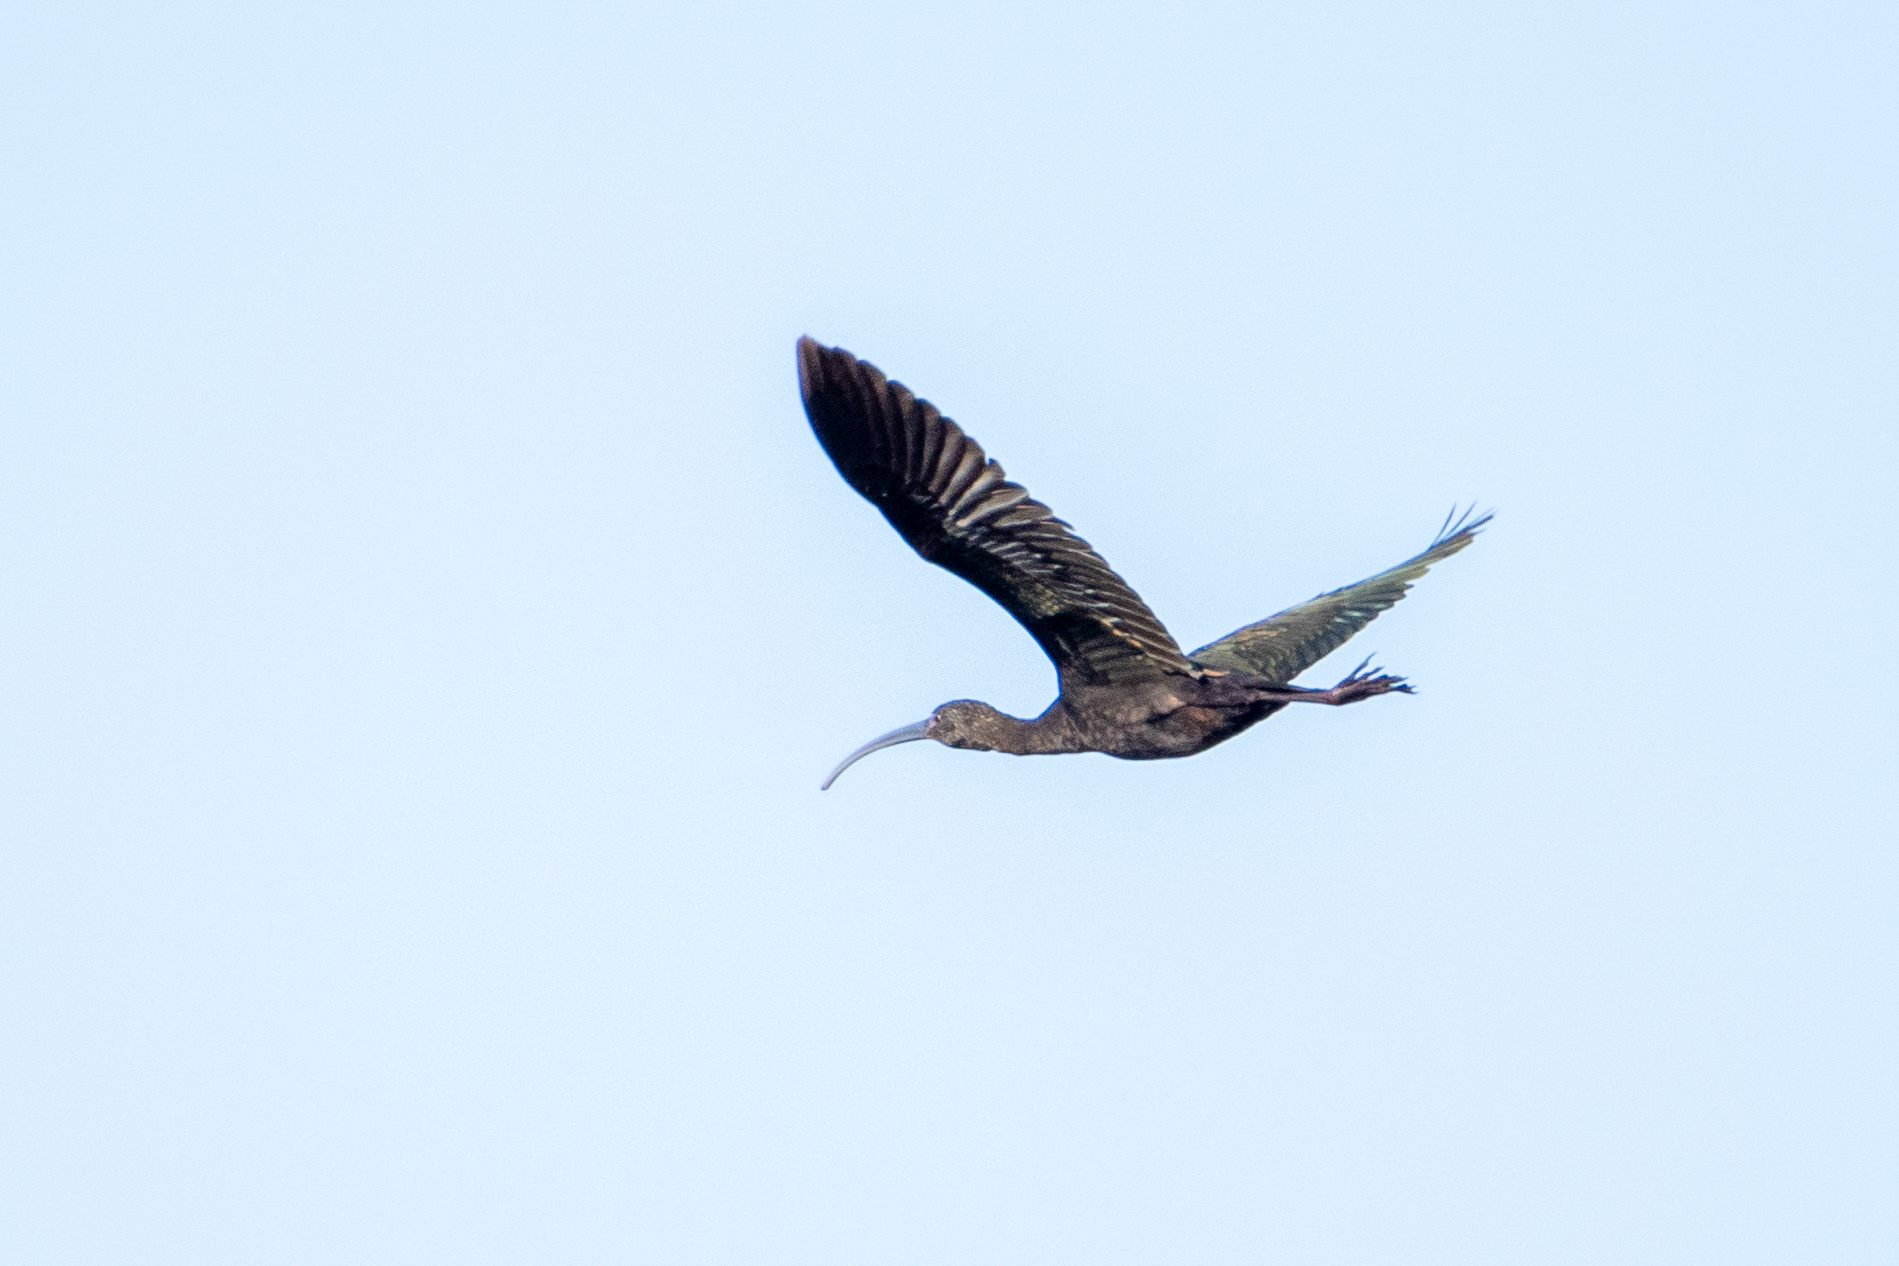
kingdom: Animalia
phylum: Chordata
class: Aves
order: Pelecaniformes
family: Threskiornithidae
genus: Plegadis
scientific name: Plegadis chihi
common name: White-faced ibis
